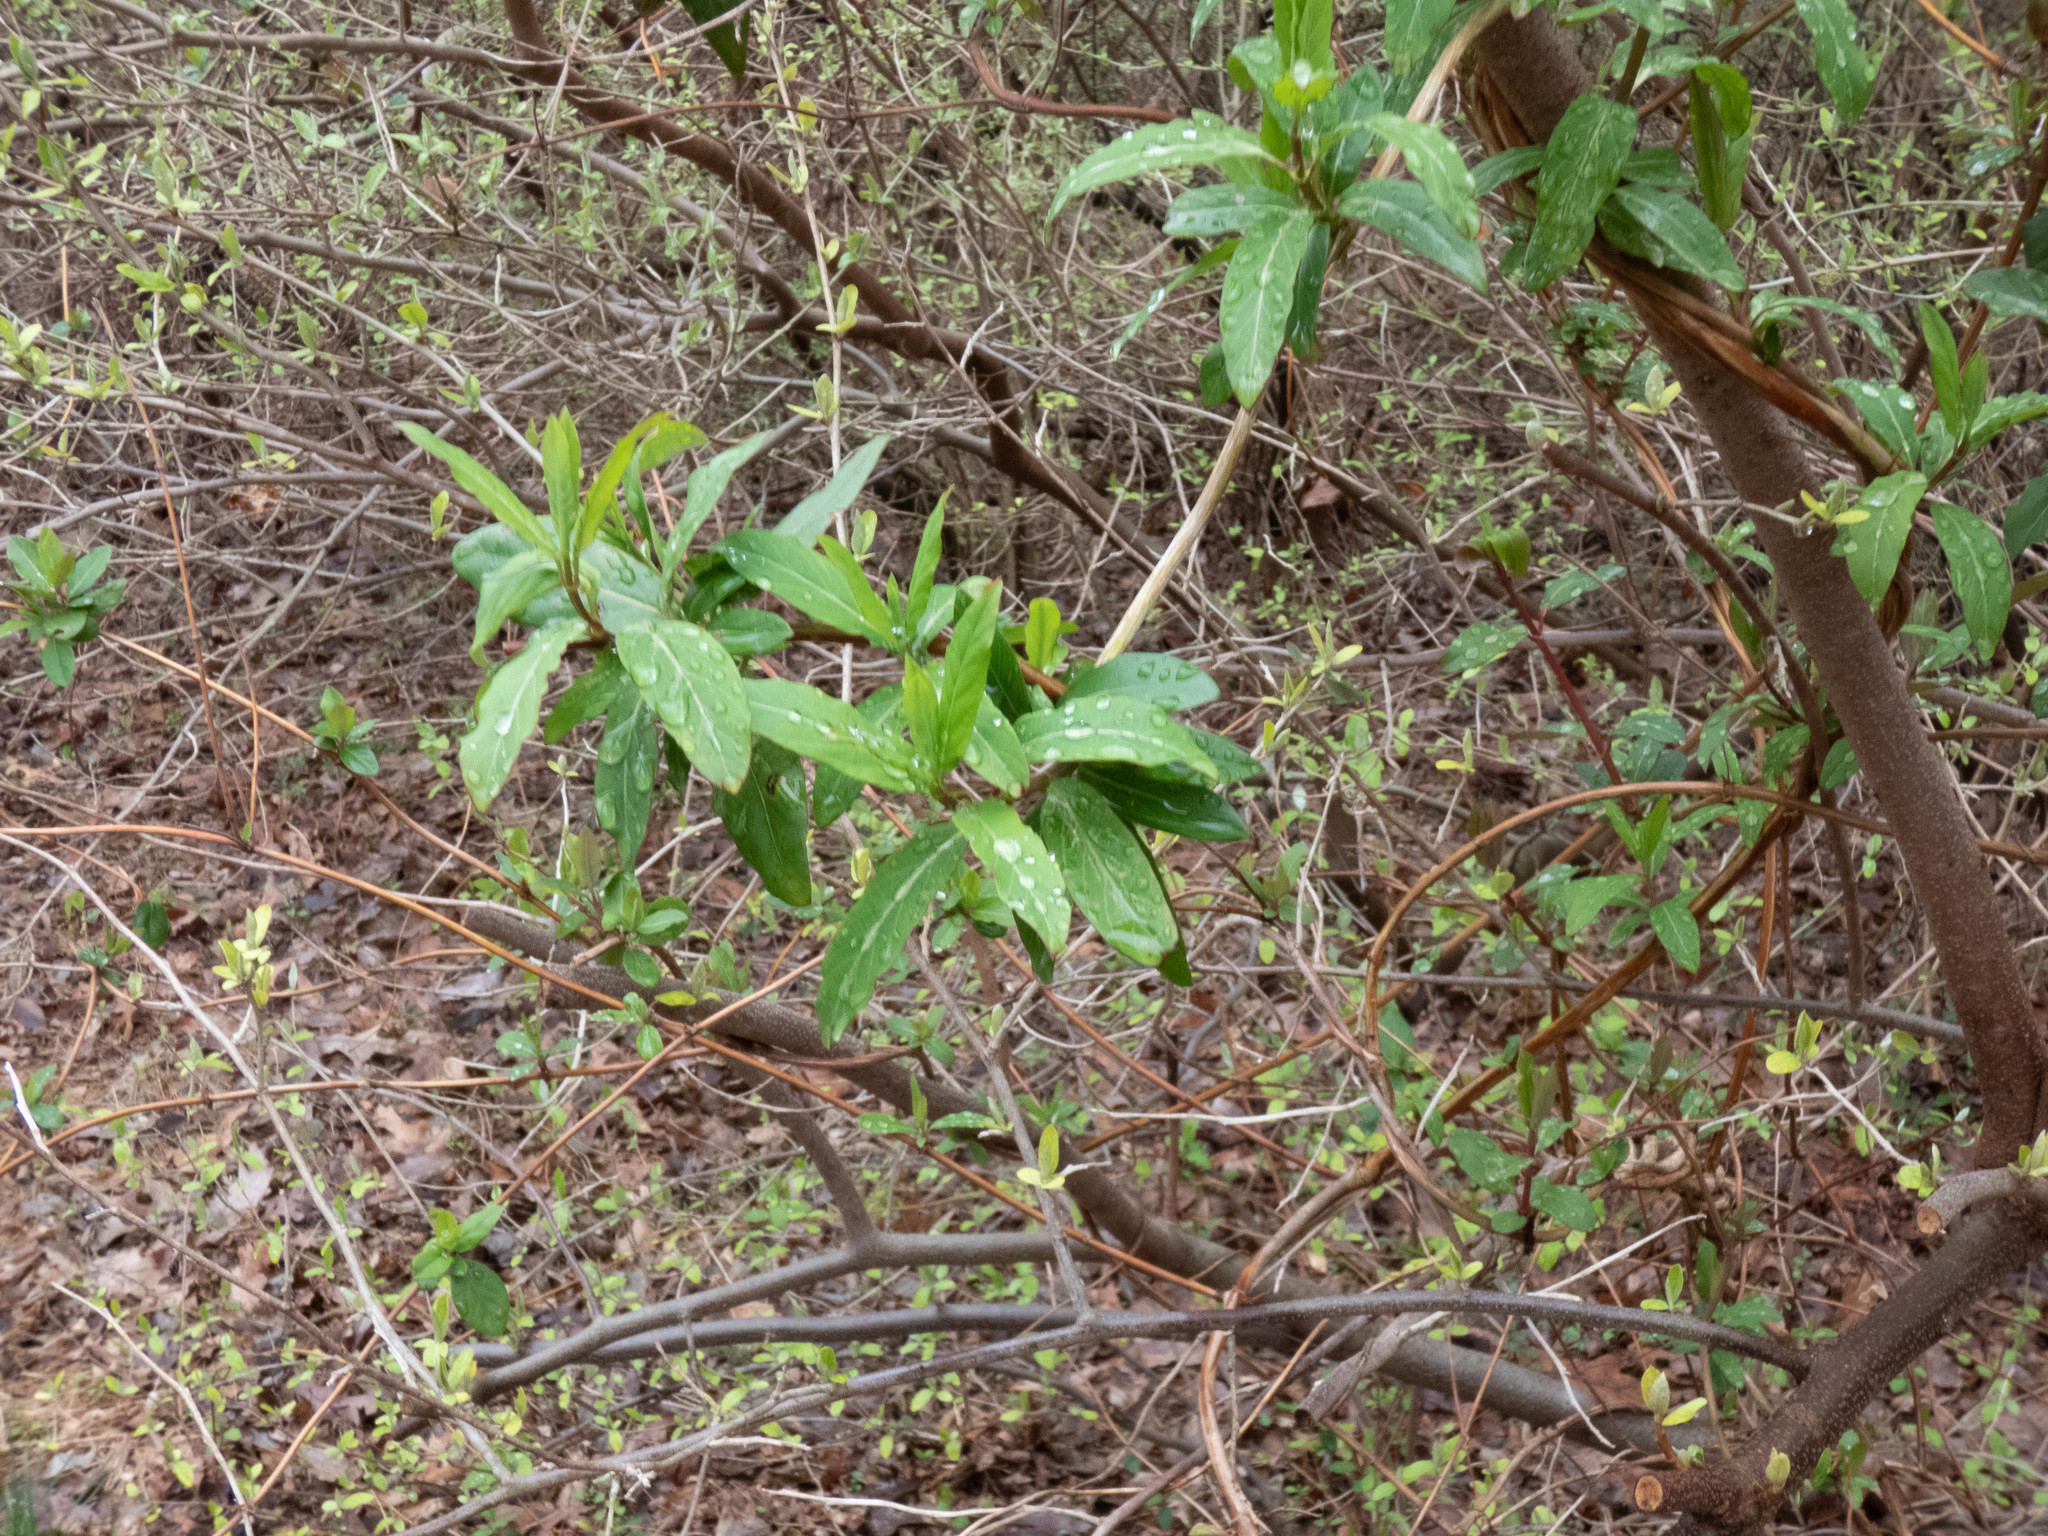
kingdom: Plantae
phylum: Tracheophyta
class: Magnoliopsida
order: Dipsacales
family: Caprifoliaceae
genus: Lonicera
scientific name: Lonicera japonica
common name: Japanese honeysuckle
